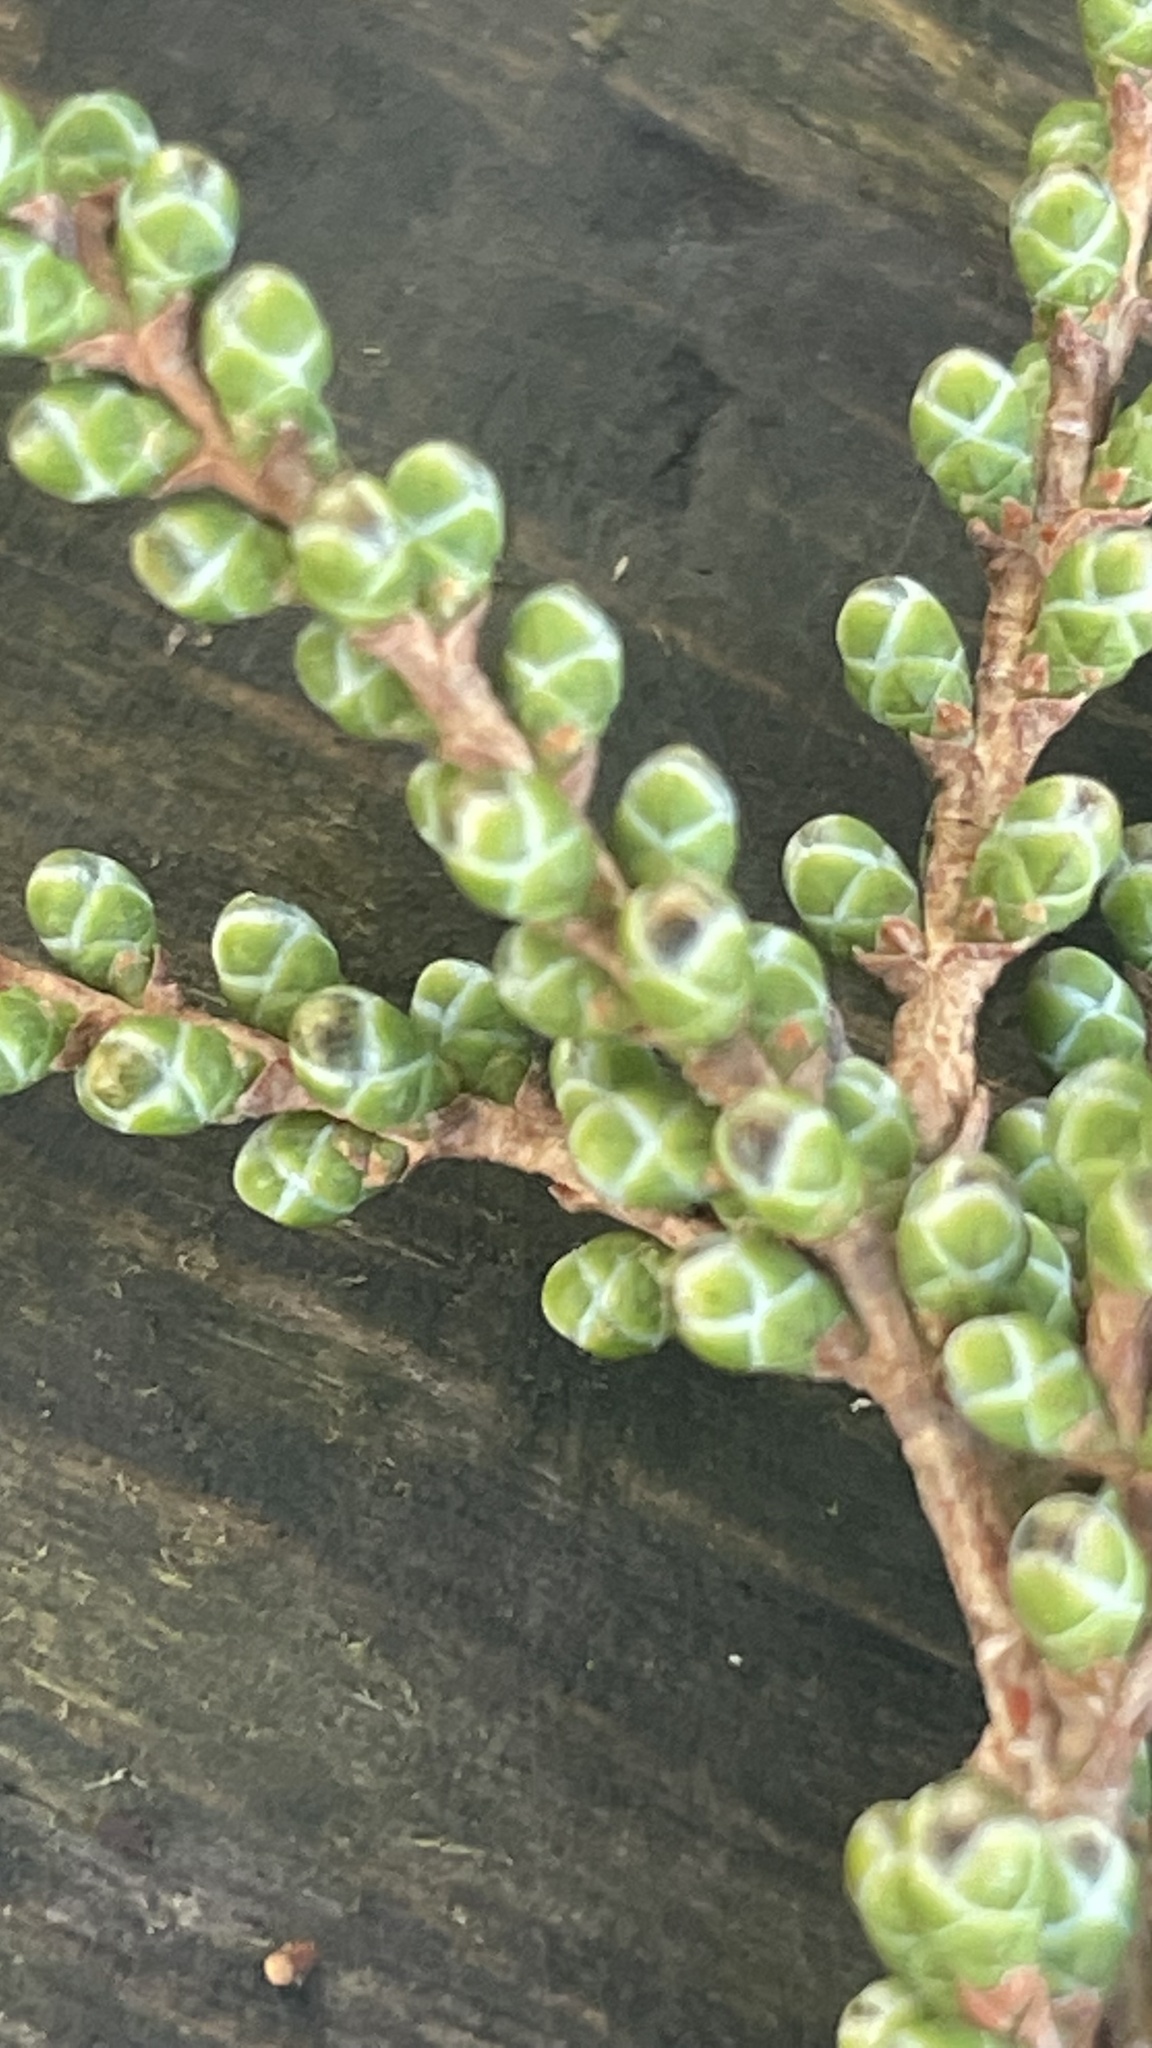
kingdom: Plantae
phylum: Tracheophyta
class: Pinopsida
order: Pinales
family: Cupressaceae
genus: Taxodium
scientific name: Taxodium mucronatum
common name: Montezume bald cypress
